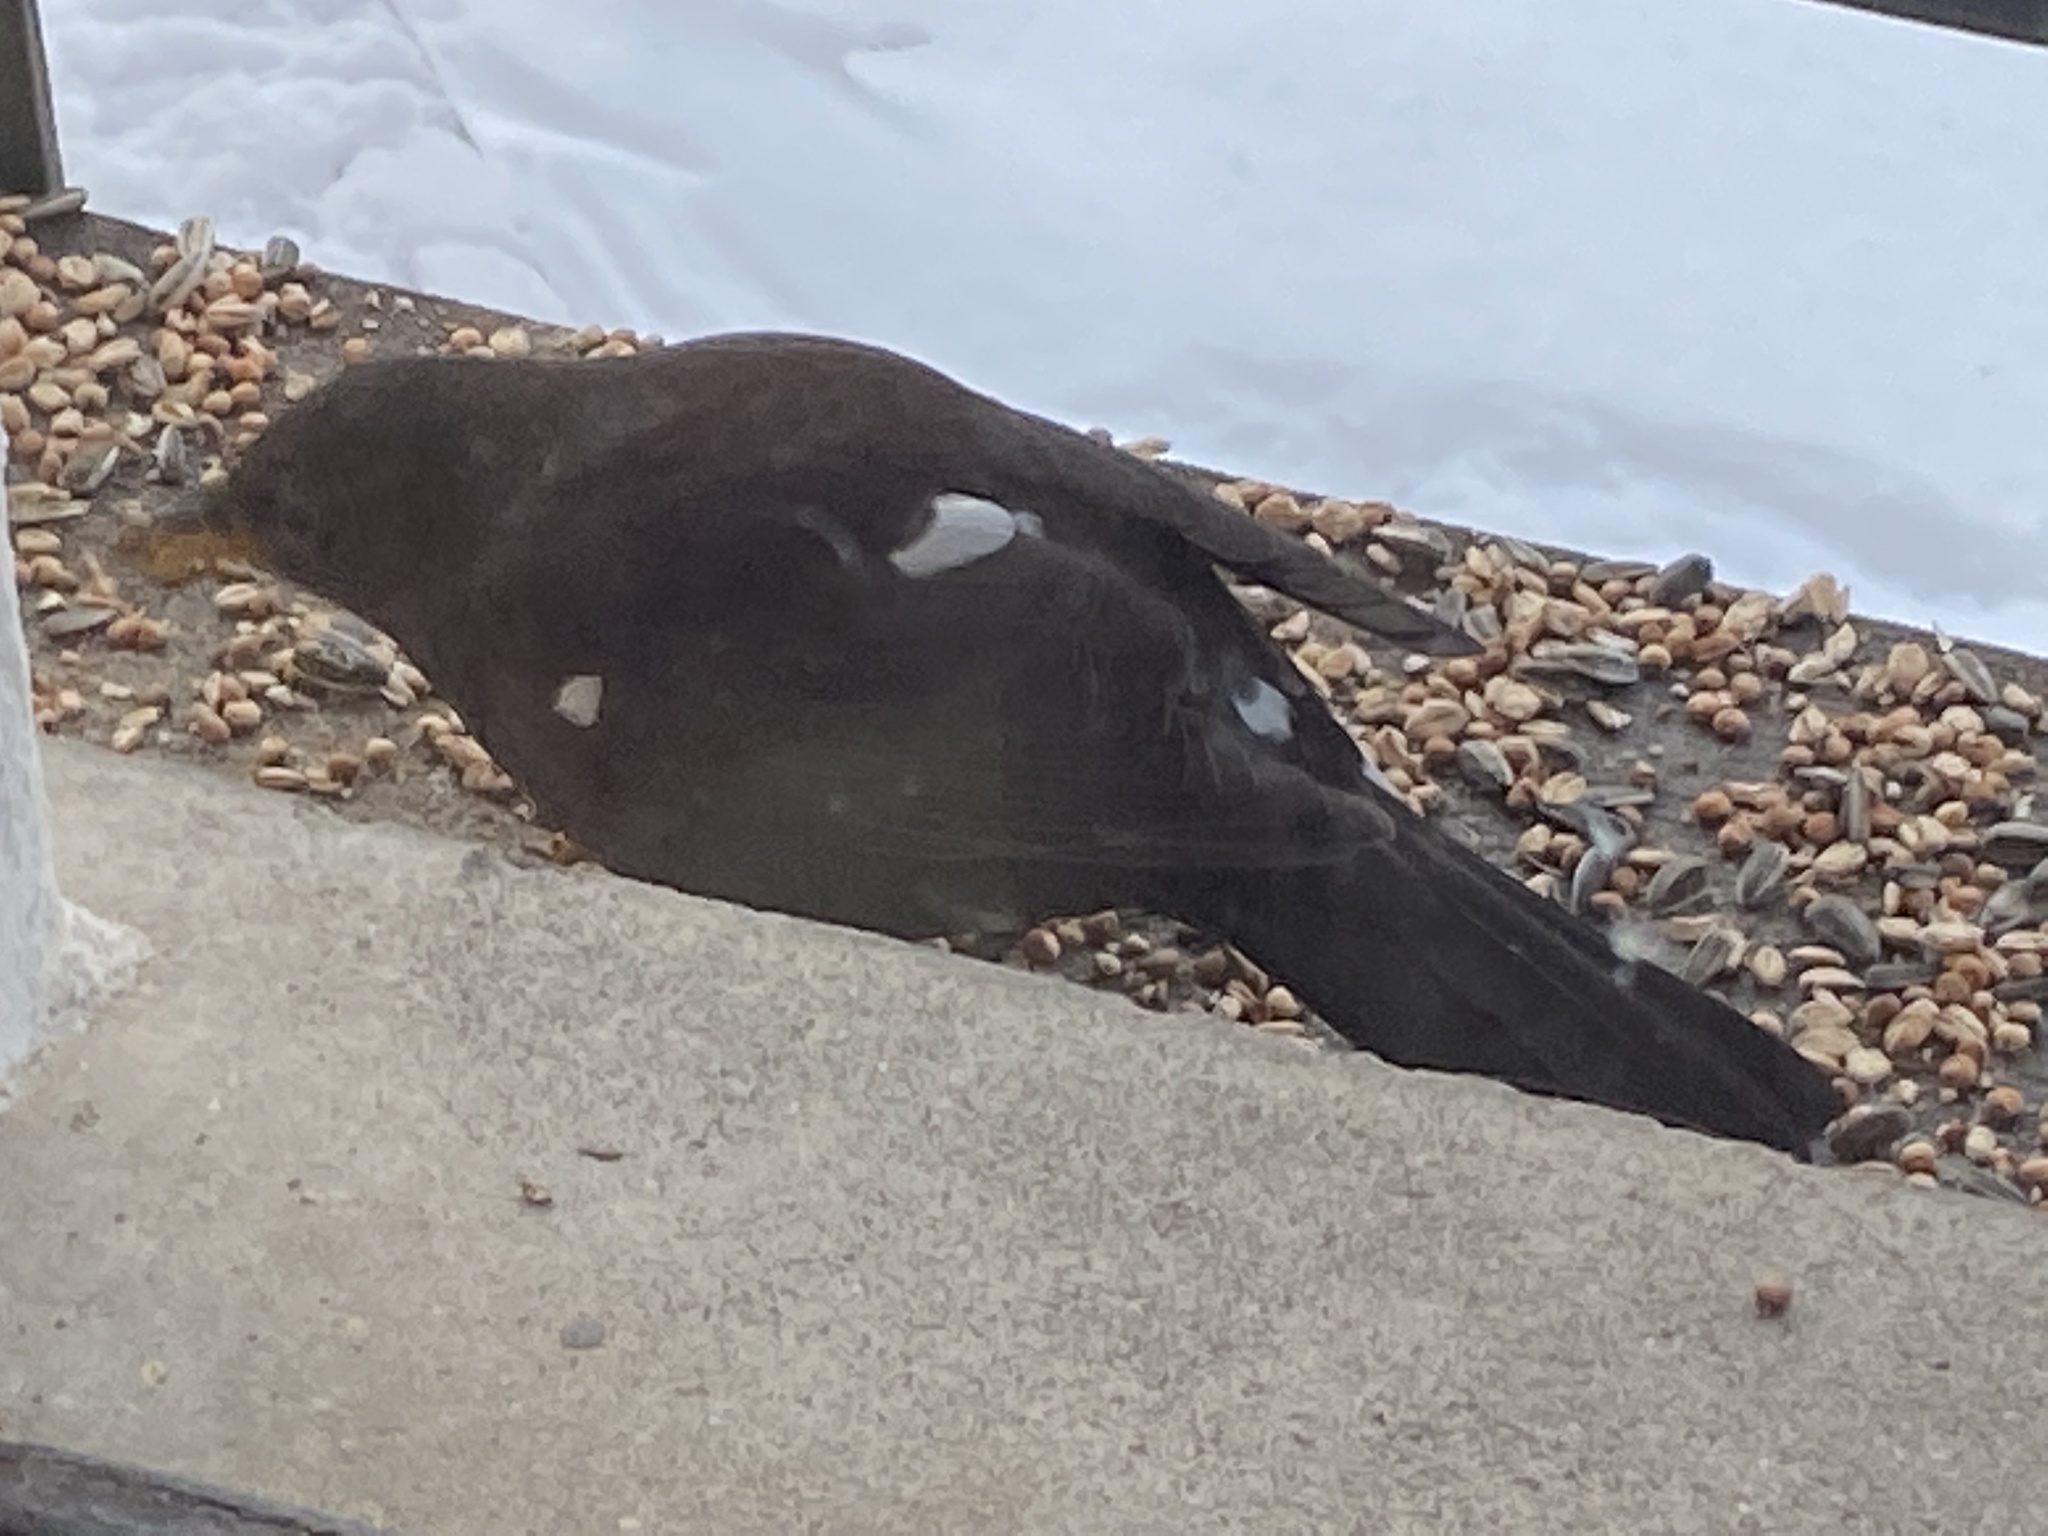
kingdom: Animalia
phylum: Chordata
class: Aves
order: Passeriformes
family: Turdidae
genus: Turdus
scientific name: Turdus merula
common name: Common blackbird
